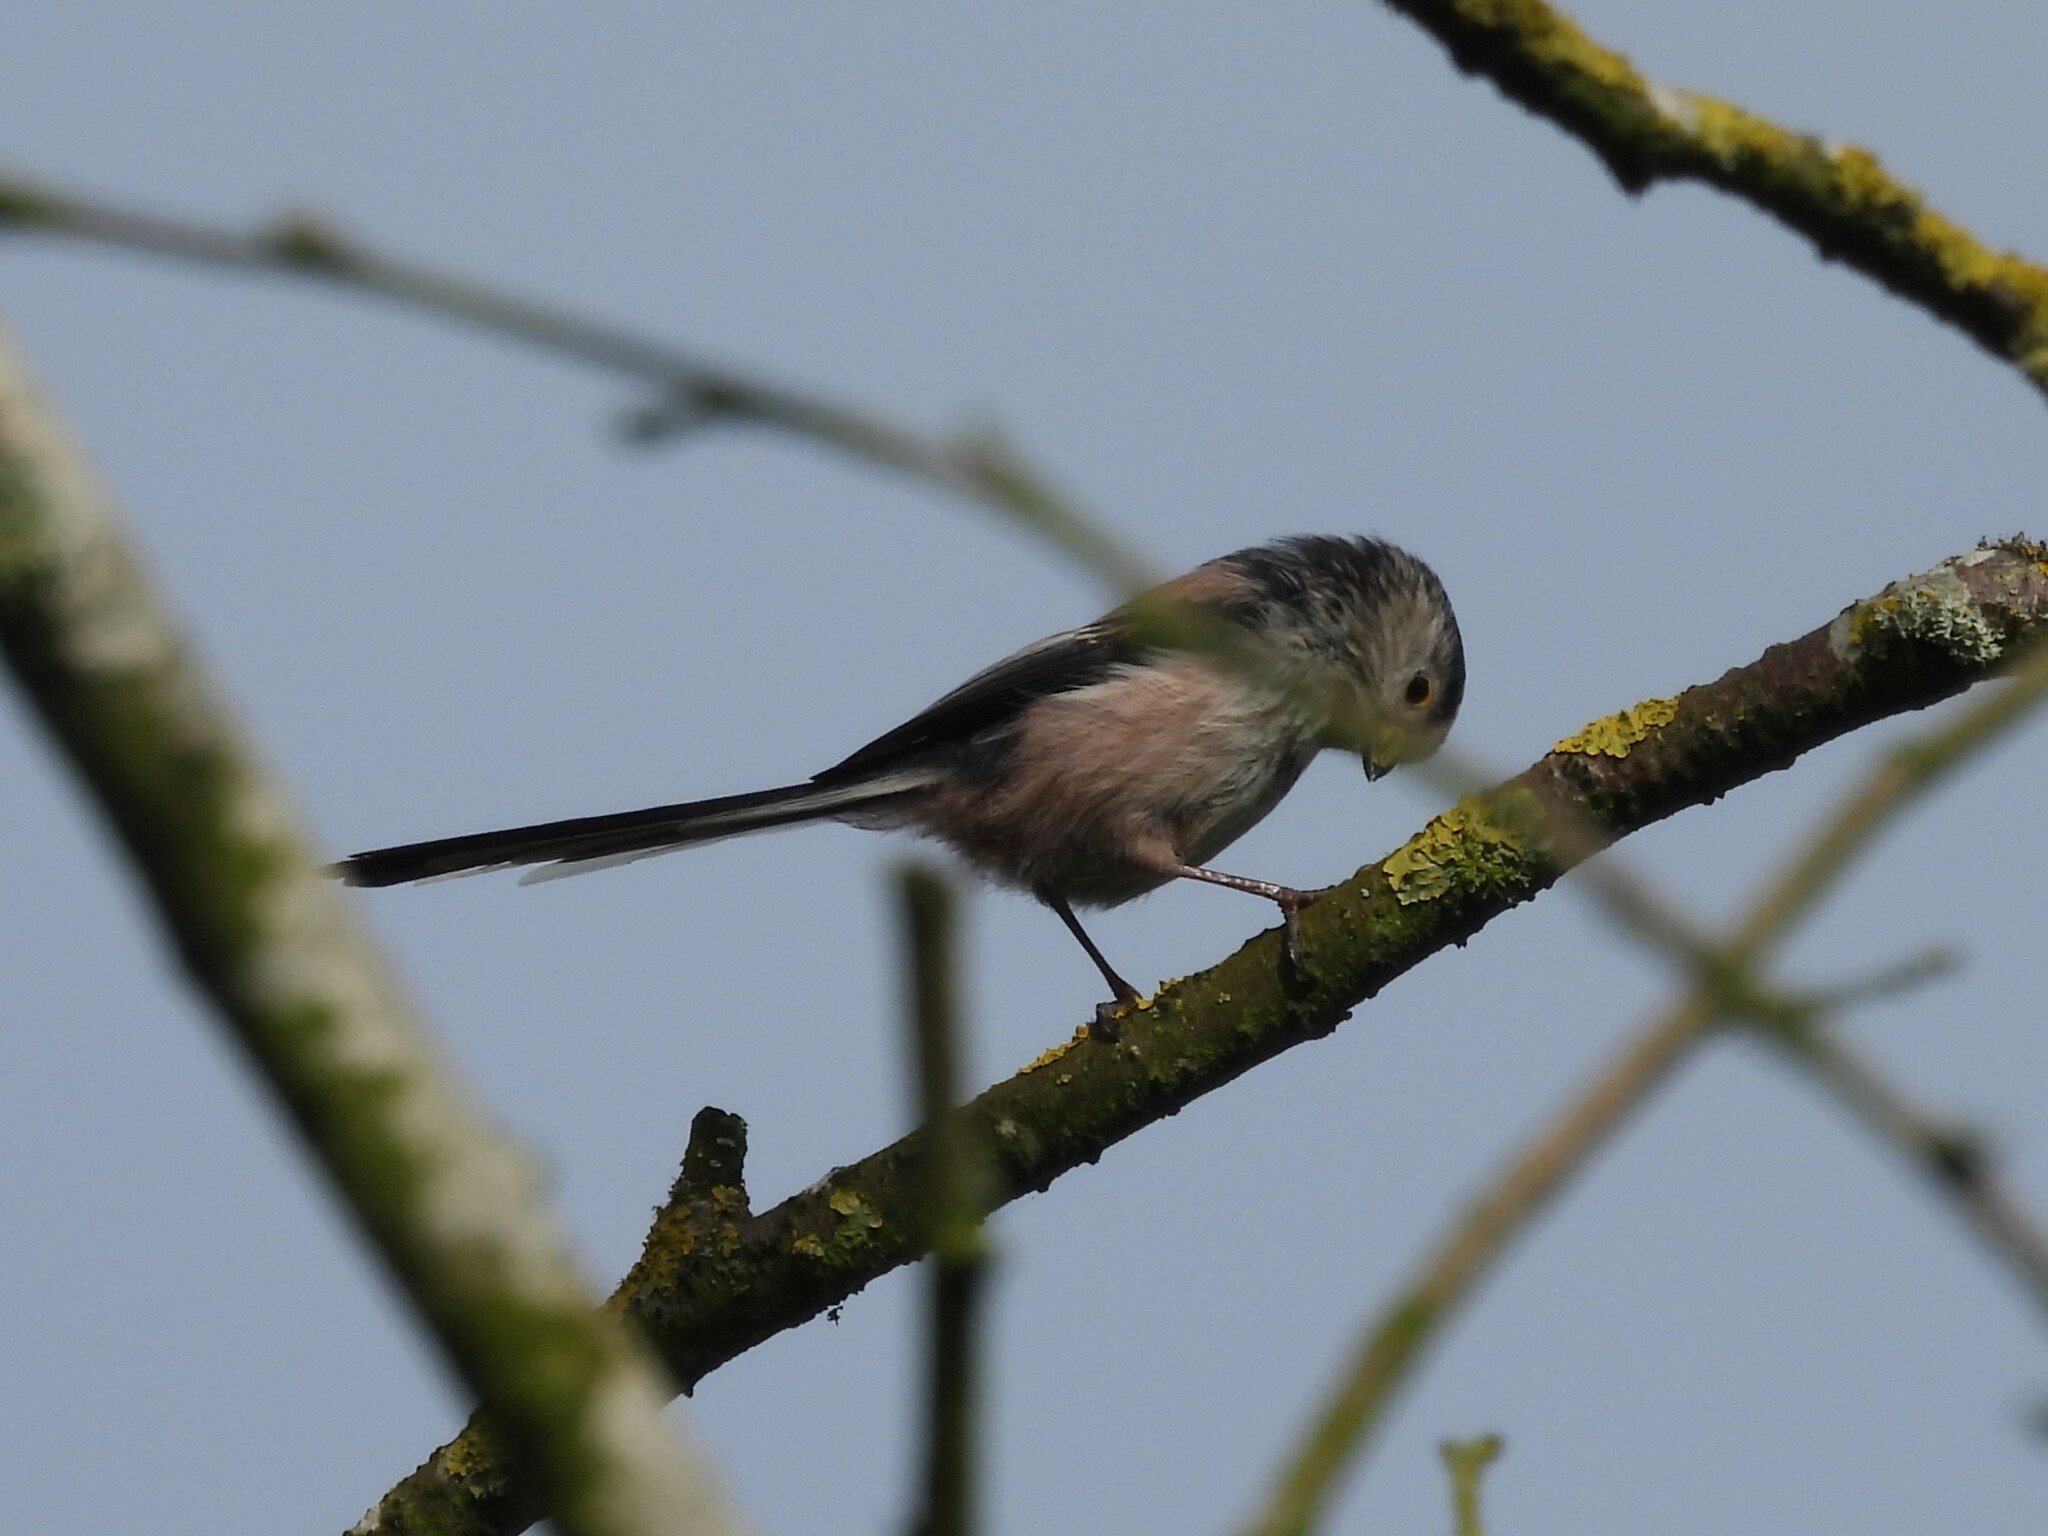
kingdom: Animalia
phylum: Chordata
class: Aves
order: Passeriformes
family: Aegithalidae
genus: Aegithalos
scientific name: Aegithalos caudatus
